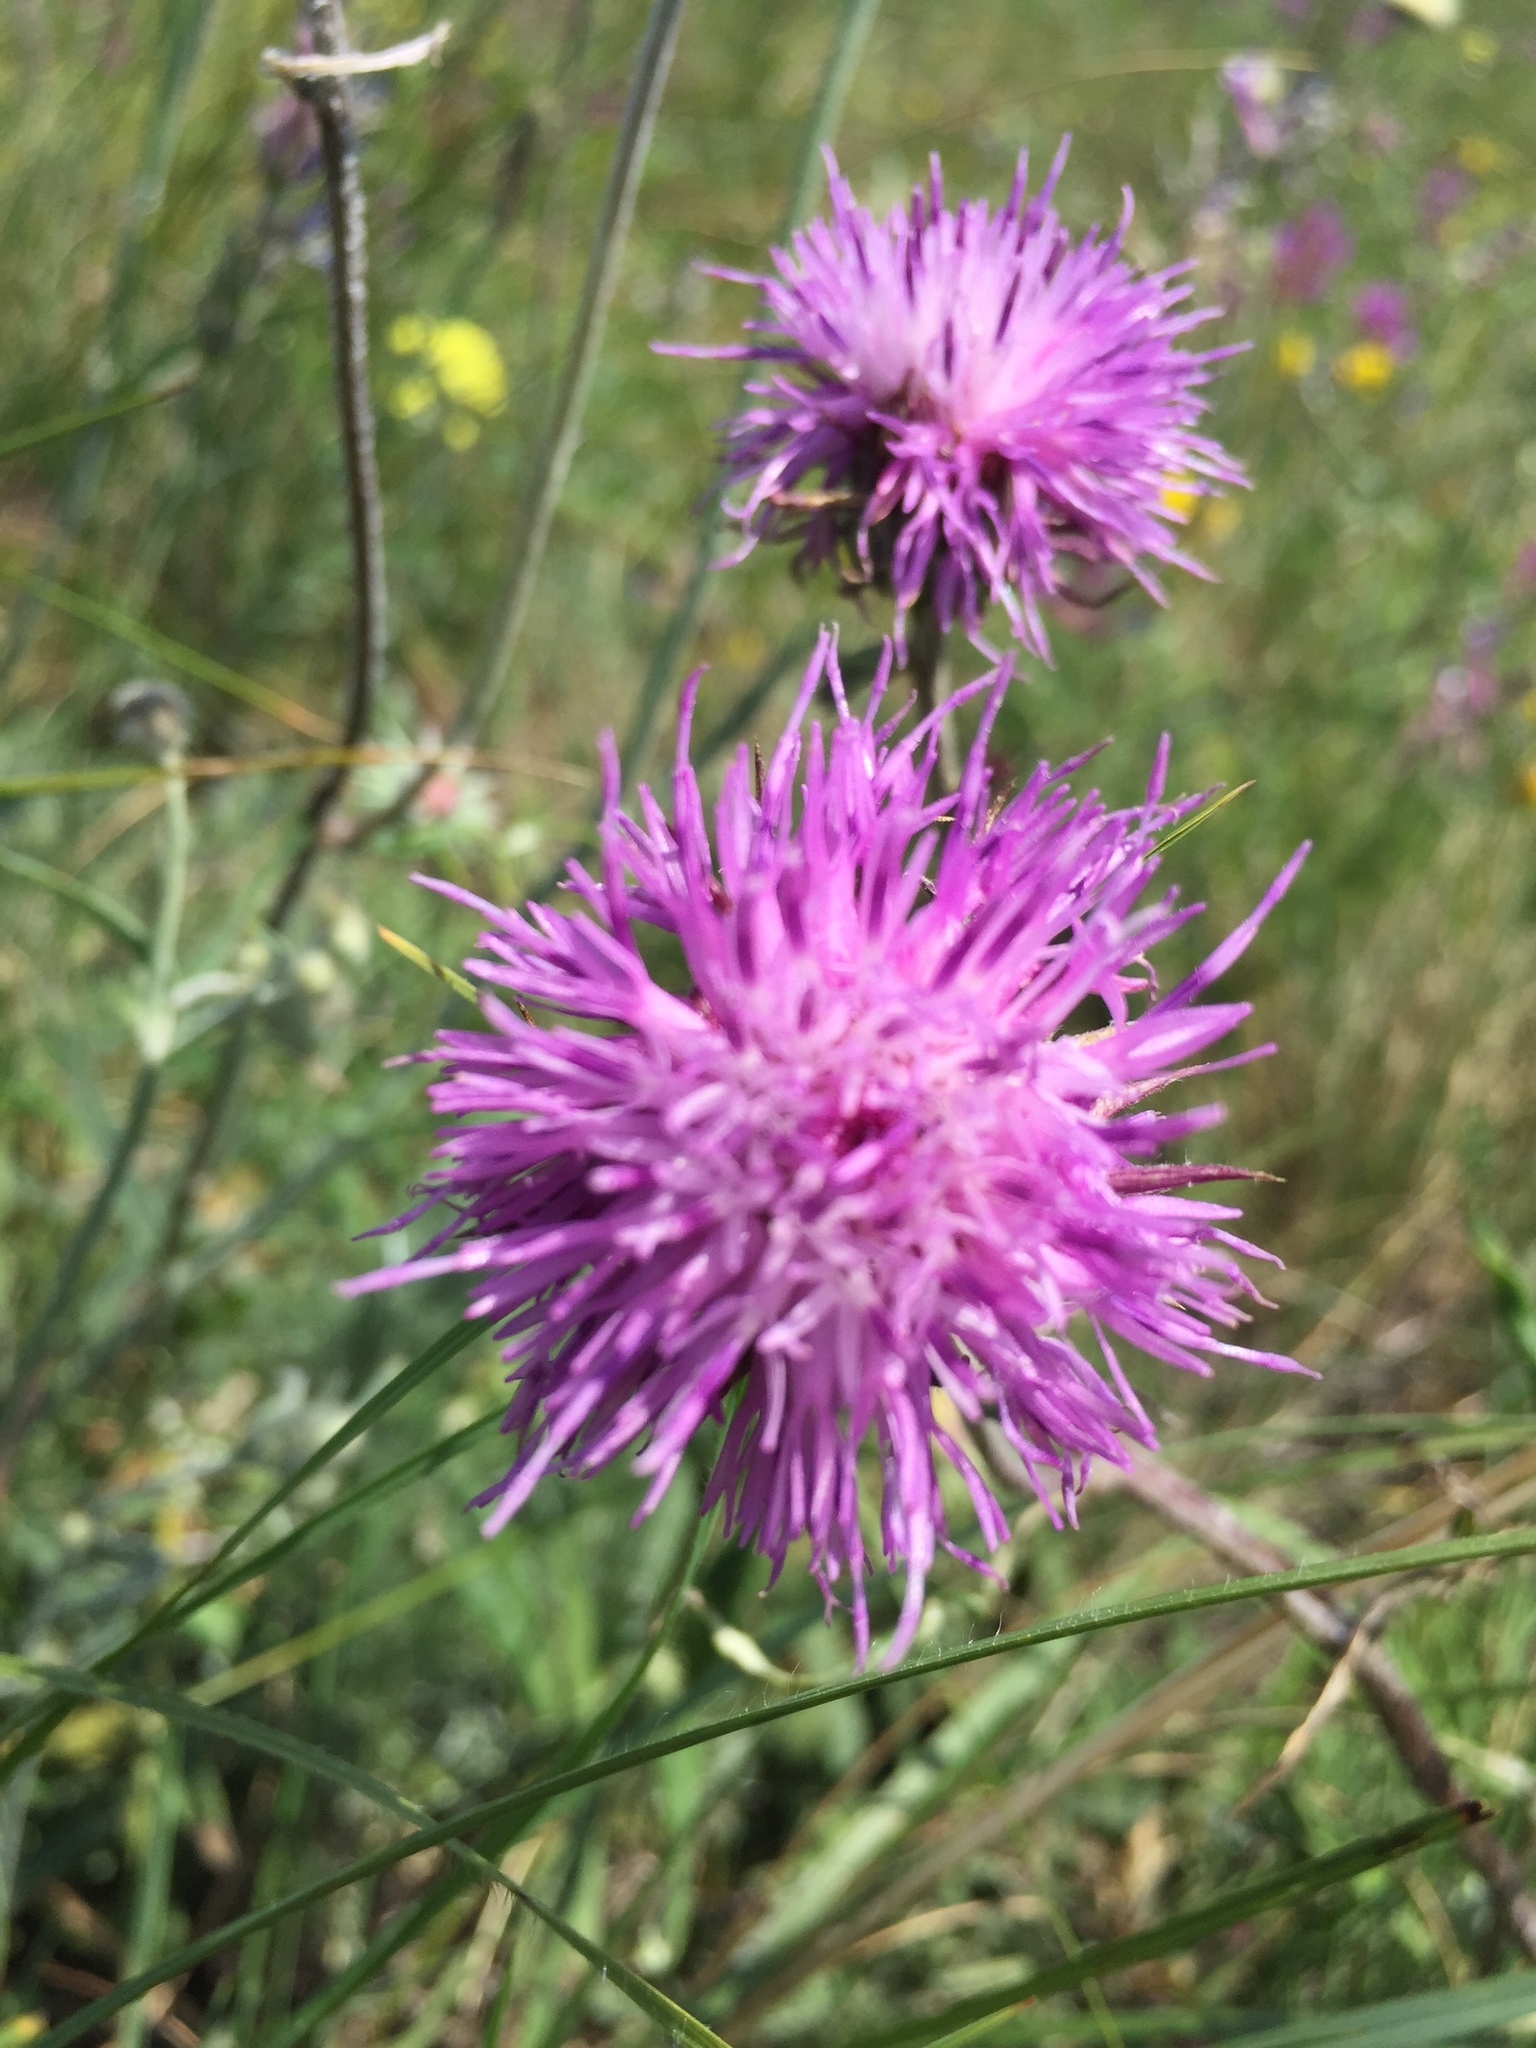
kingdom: Plantae
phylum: Tracheophyta
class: Magnoliopsida
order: Asterales
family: Asteraceae
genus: Jurinea
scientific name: Jurinea cyanoides
